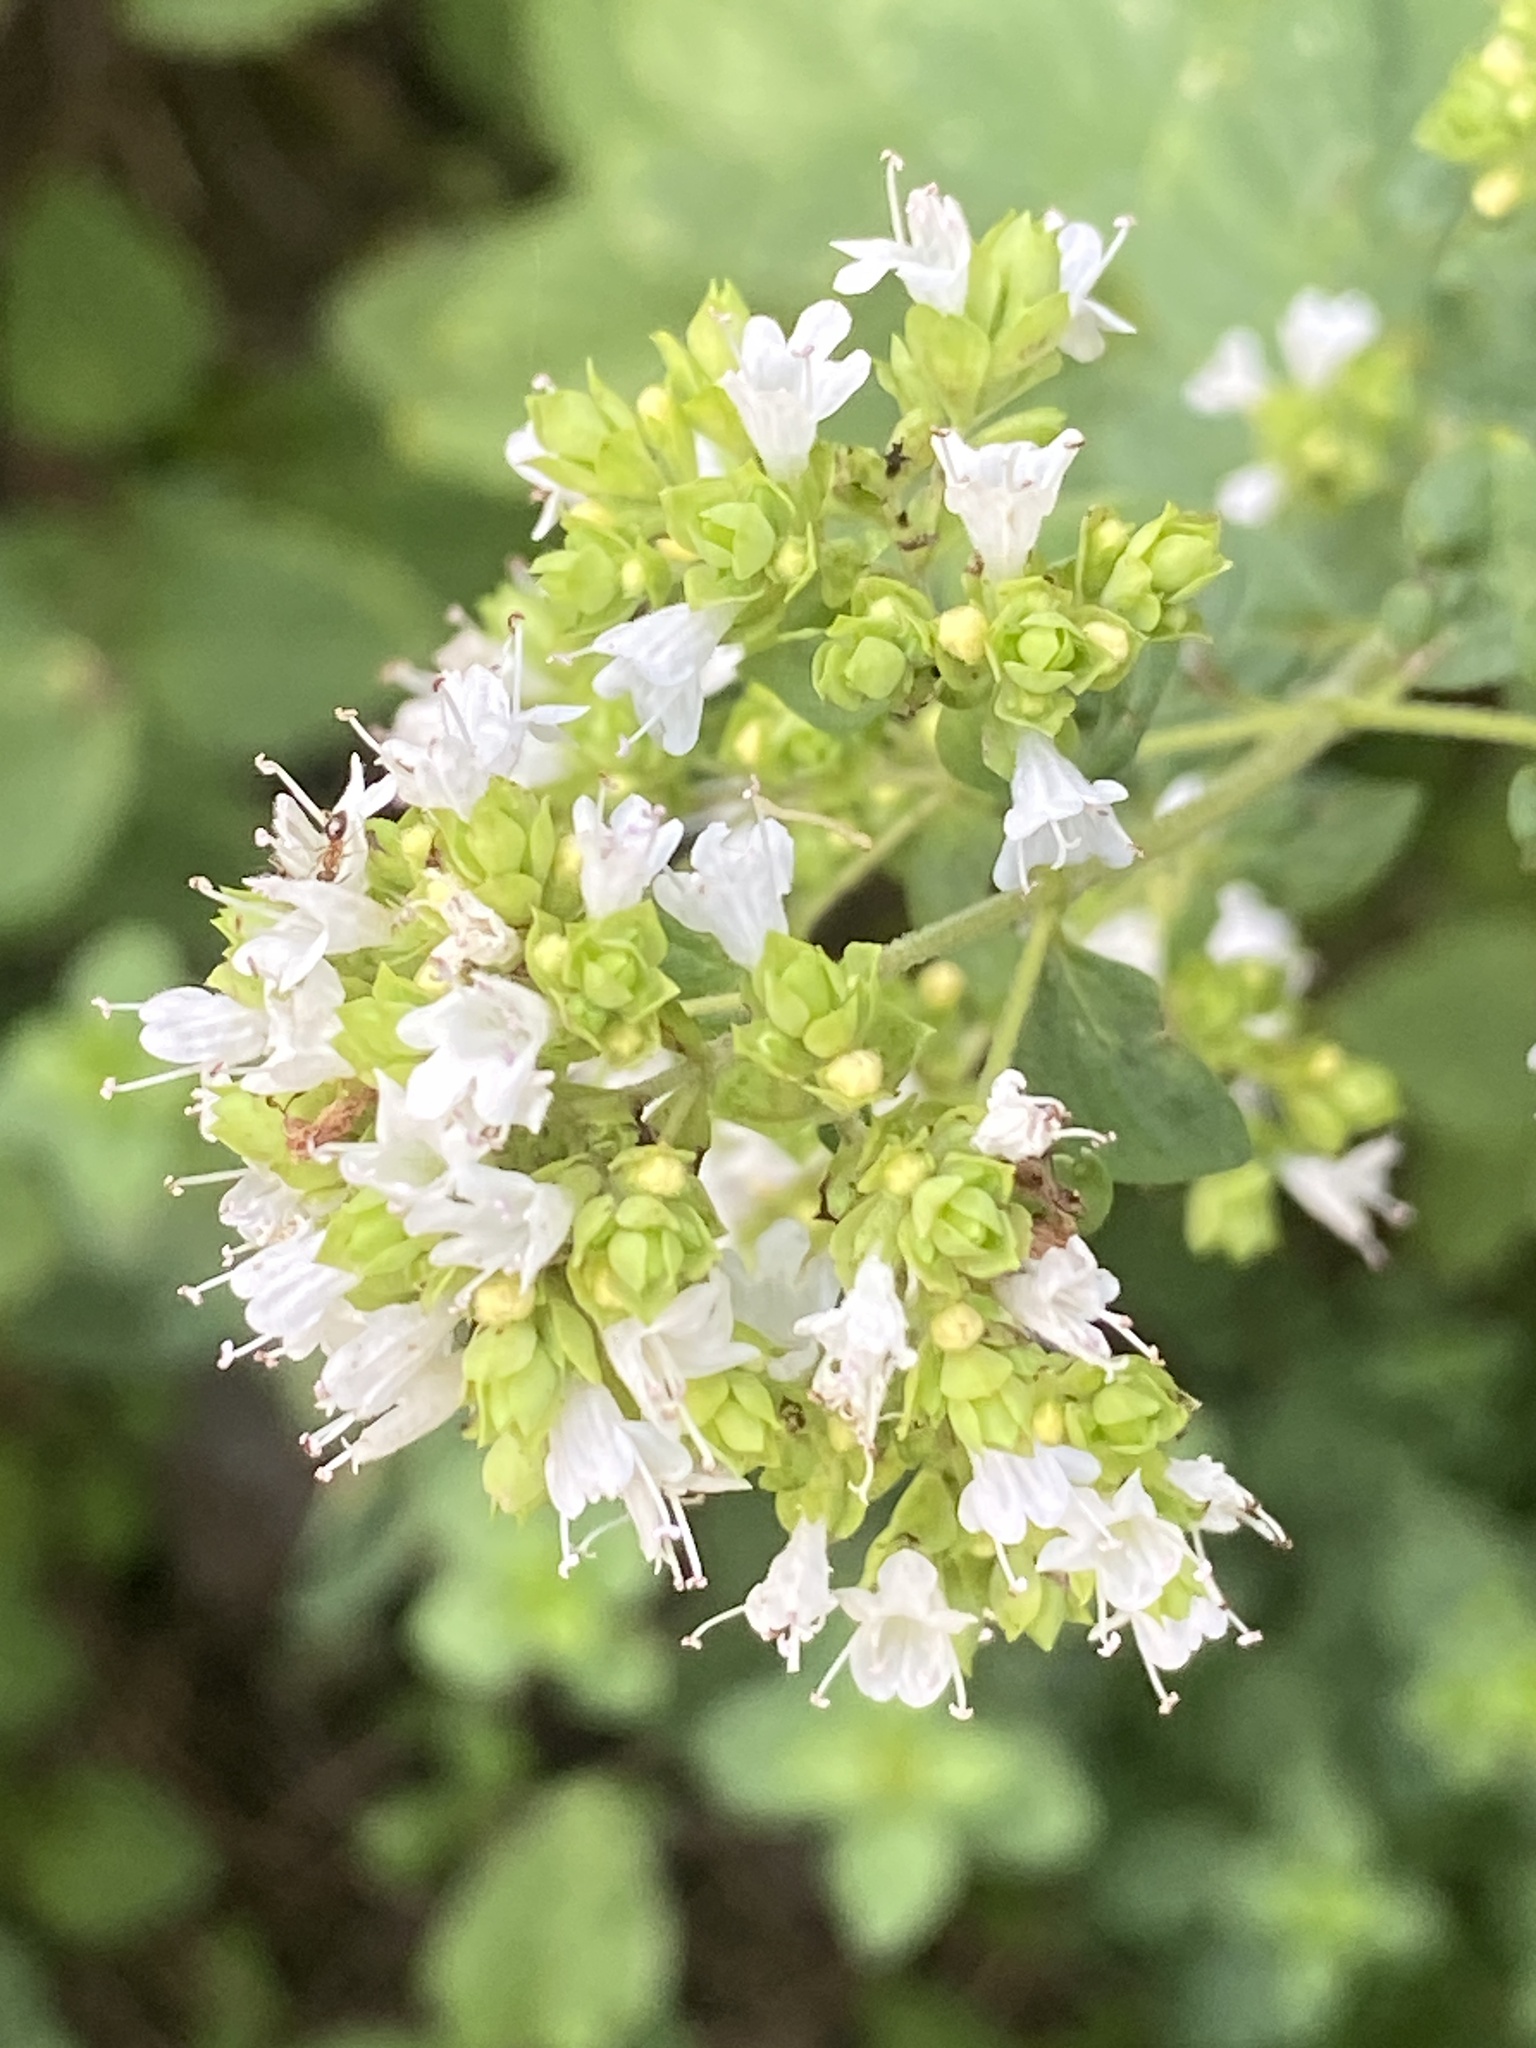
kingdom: Plantae
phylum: Tracheophyta
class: Magnoliopsida
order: Lamiales
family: Lamiaceae
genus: Origanum
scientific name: Origanum vulgare
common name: Wild marjoram
